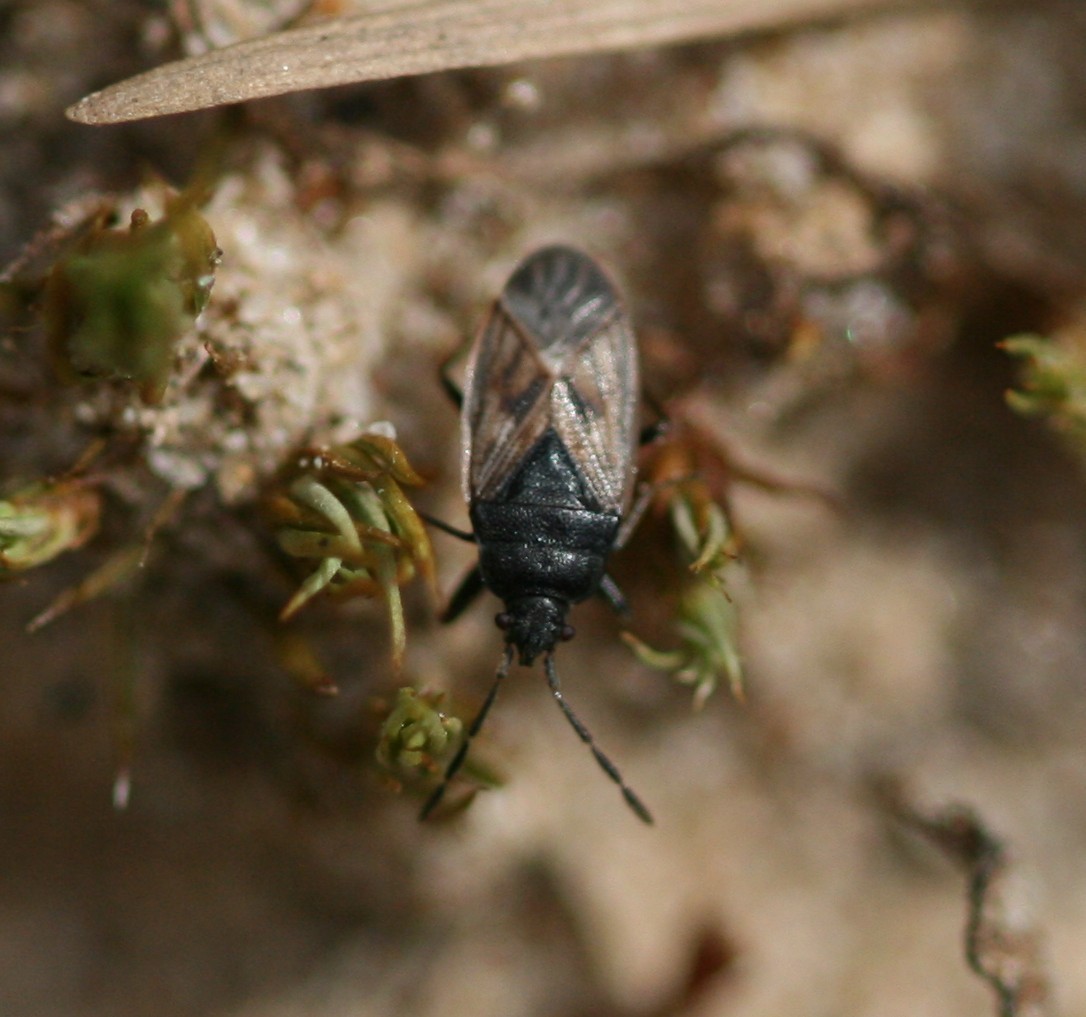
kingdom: Animalia
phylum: Arthropoda
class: Insecta
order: Hemiptera
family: Rhyparochromidae
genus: Drymus
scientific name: Drymus sylvaticus
